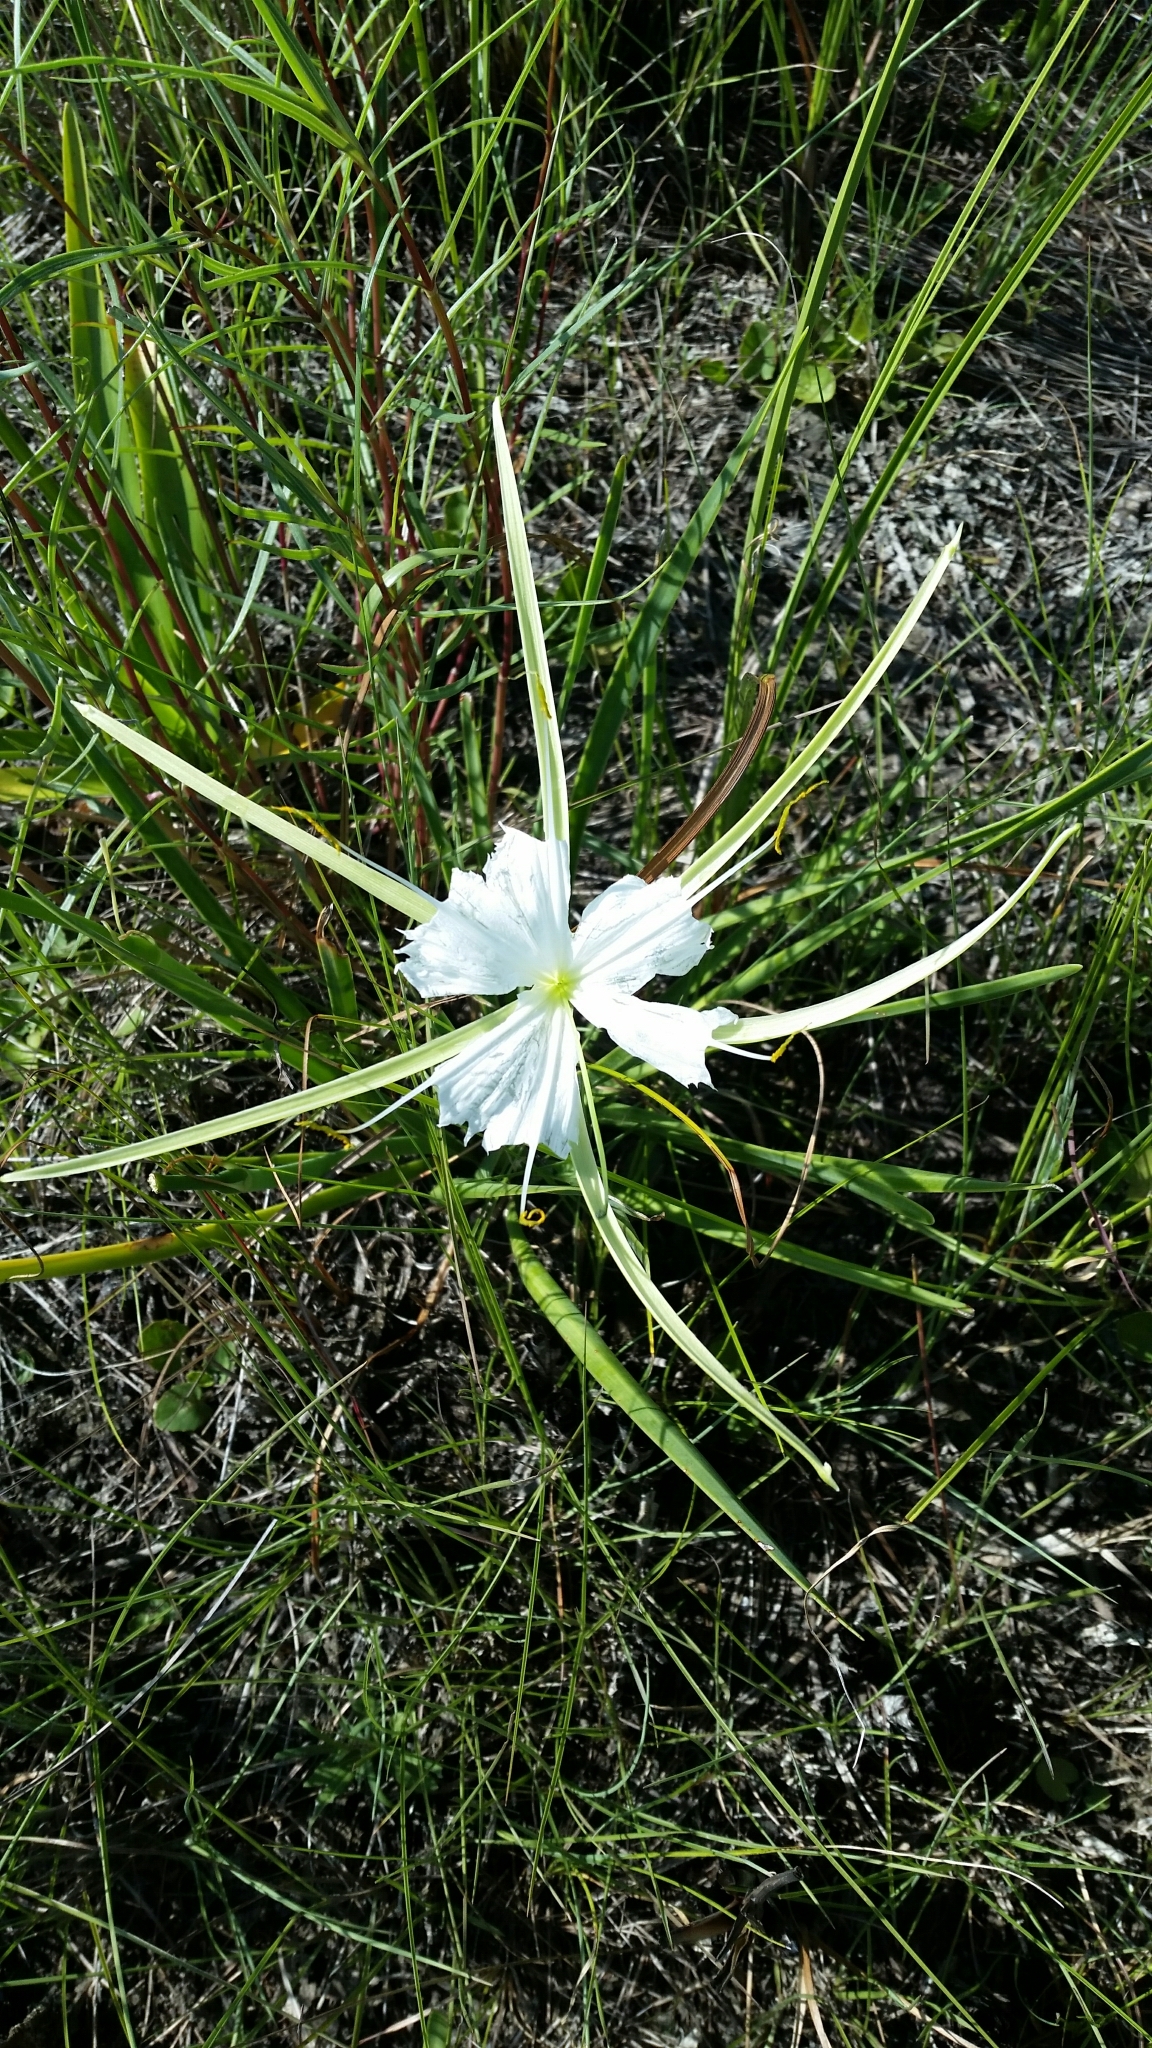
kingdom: Plantae
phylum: Tracheophyta
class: Liliopsida
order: Asparagales
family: Amaryllidaceae
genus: Hymenocallis
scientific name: Hymenocallis palmeri
